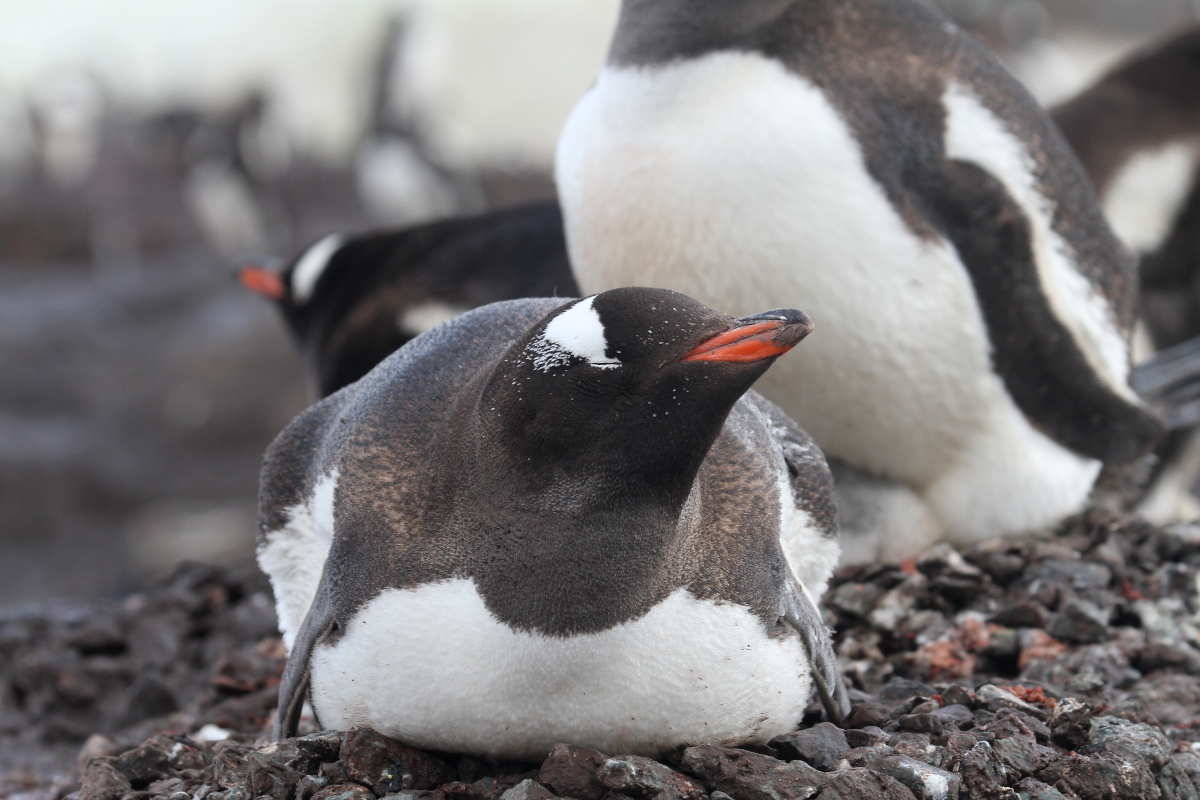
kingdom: Animalia
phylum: Chordata
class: Aves
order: Sphenisciformes
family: Spheniscidae
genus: Pygoscelis
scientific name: Pygoscelis papua
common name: Gentoo penguin
